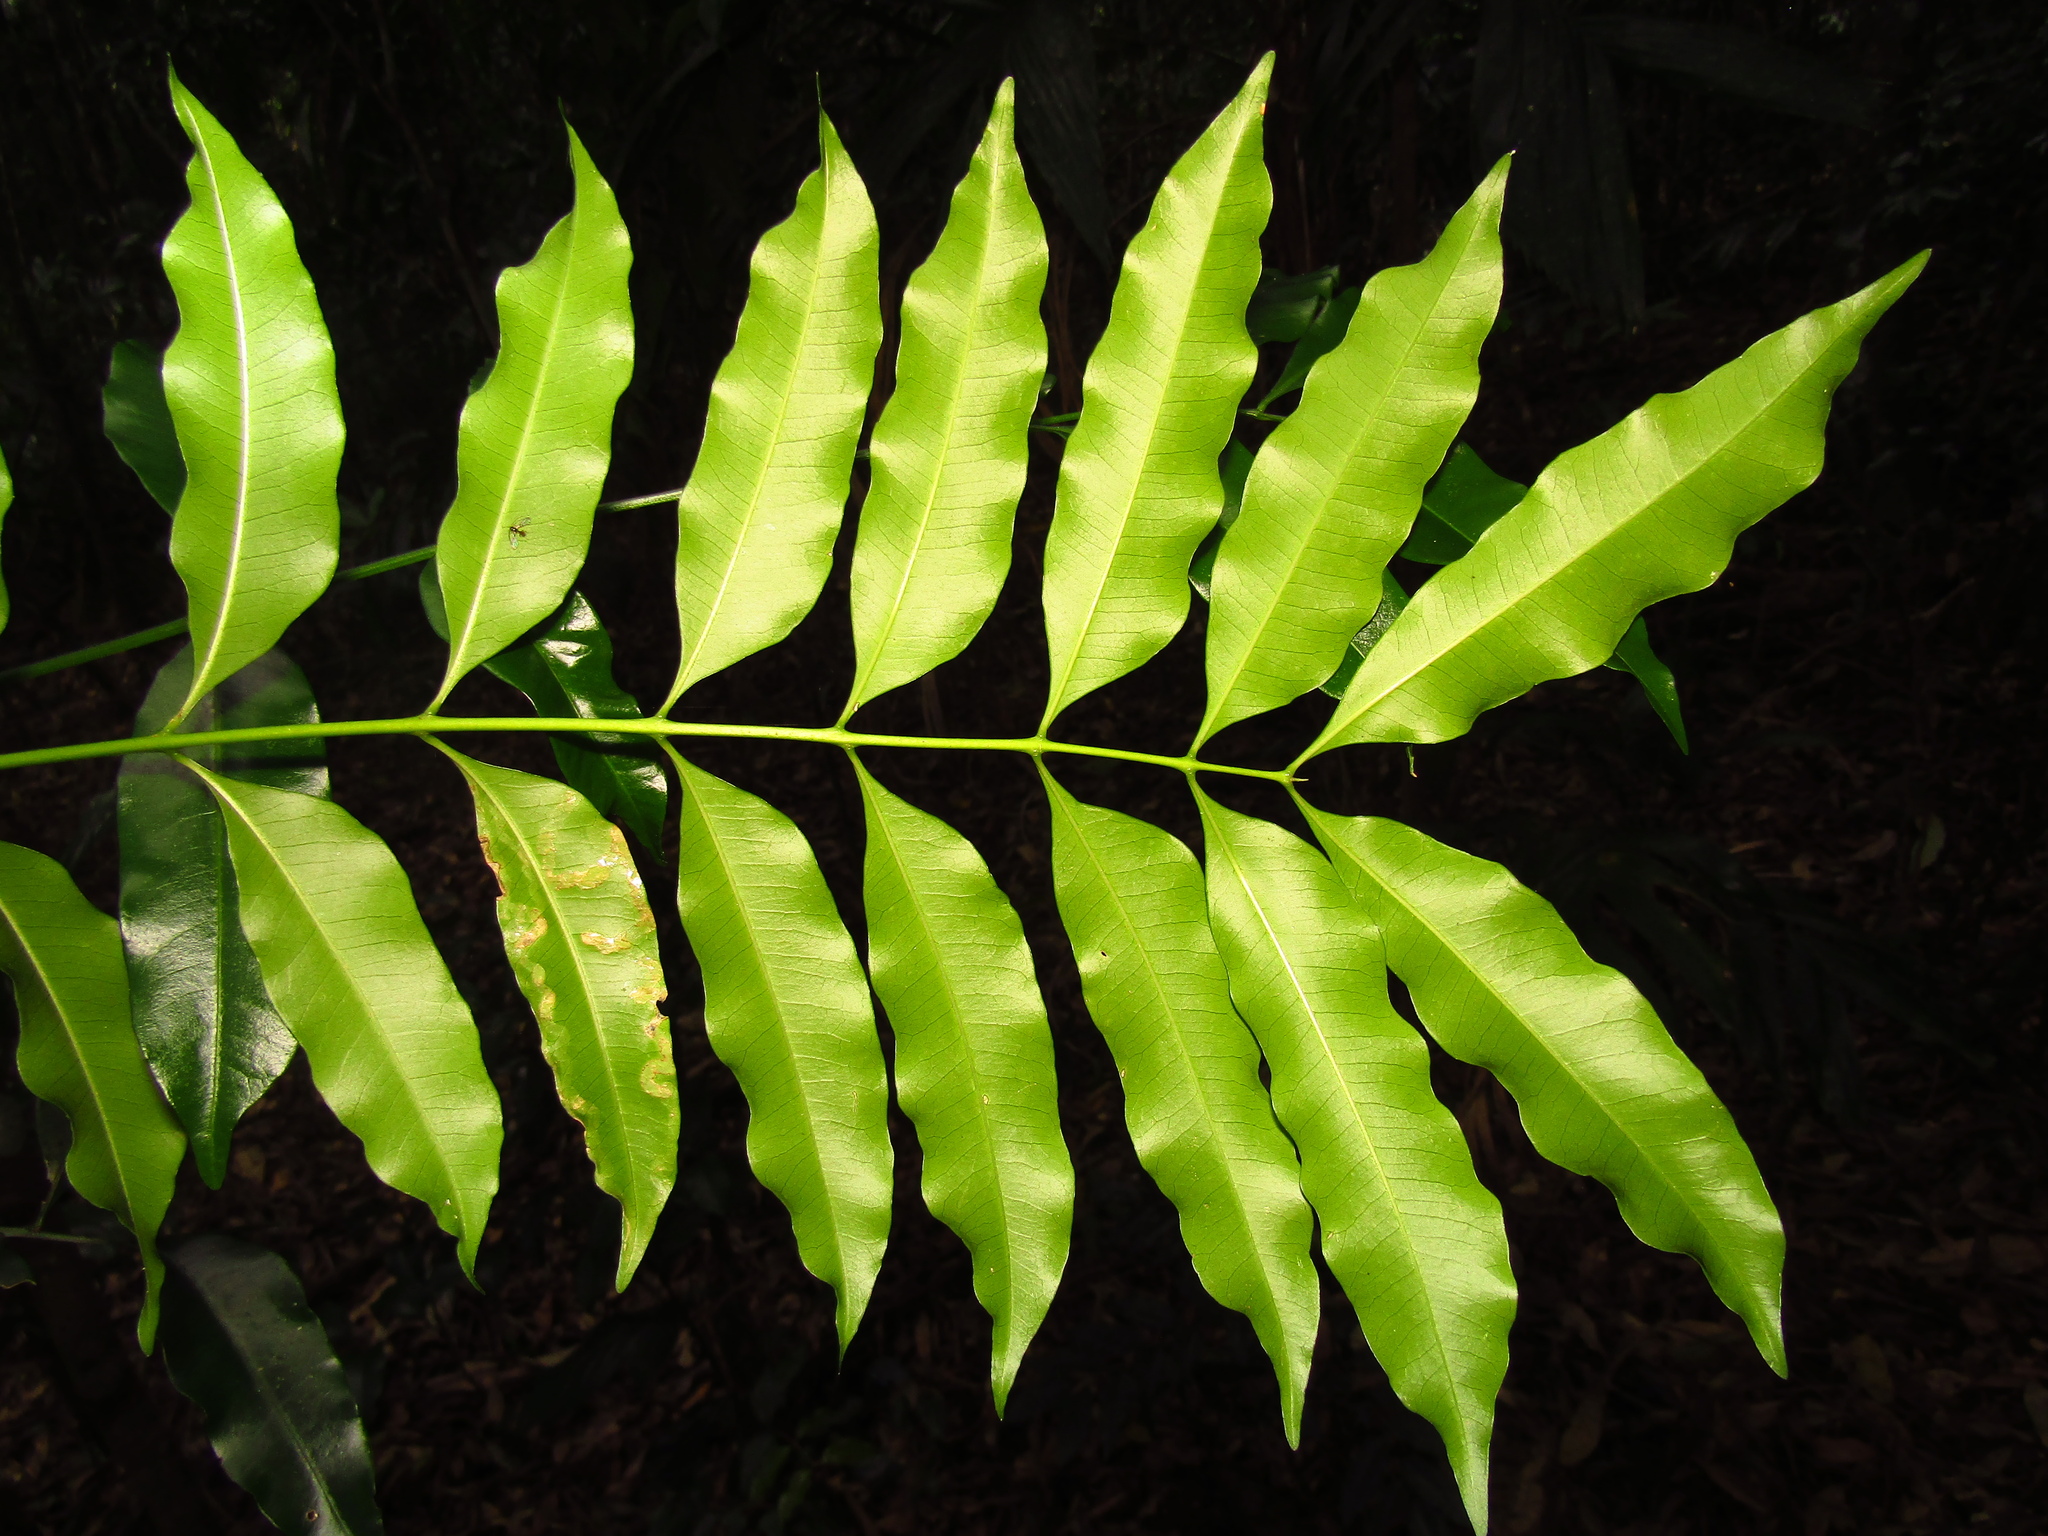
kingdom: Plantae
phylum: Tracheophyta
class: Magnoliopsida
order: Sapindales
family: Meliaceae
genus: Owenia
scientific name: Owenia cepiodora
